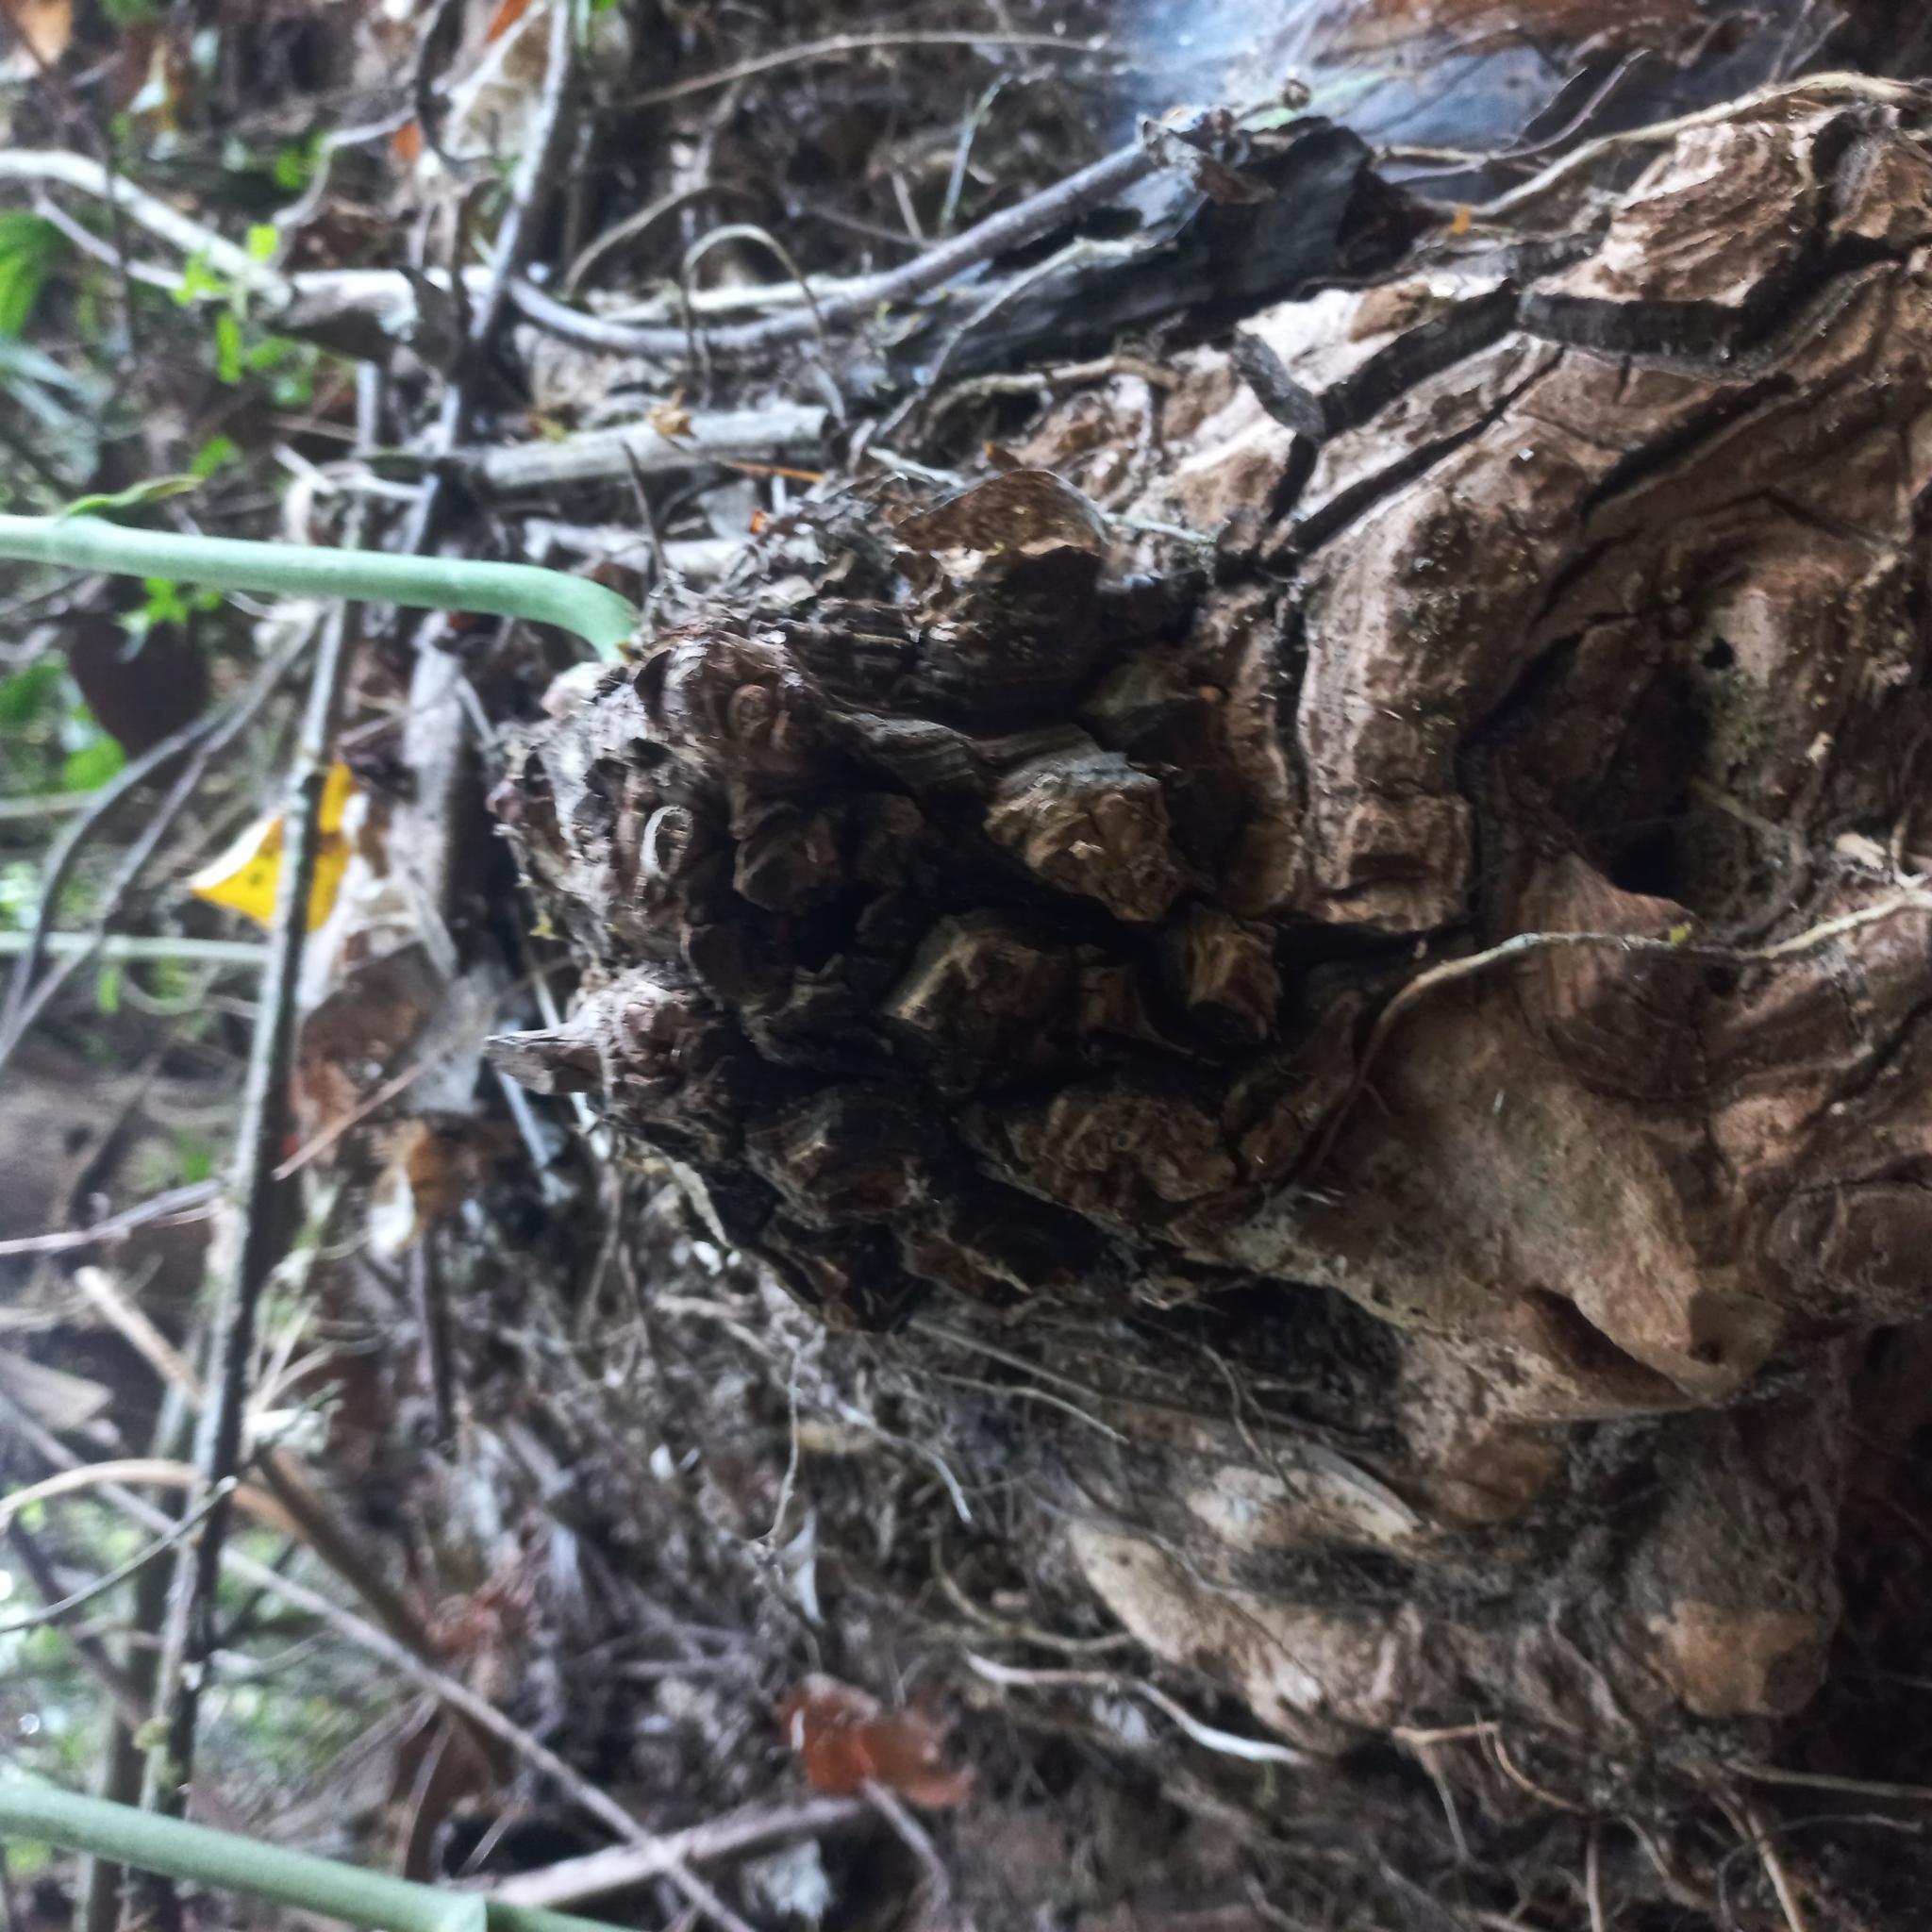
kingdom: Plantae
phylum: Tracheophyta
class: Liliopsida
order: Dioscoreales
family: Dioscoreaceae
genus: Dioscorea
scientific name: Dioscorea mexicana
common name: Mexican yam
